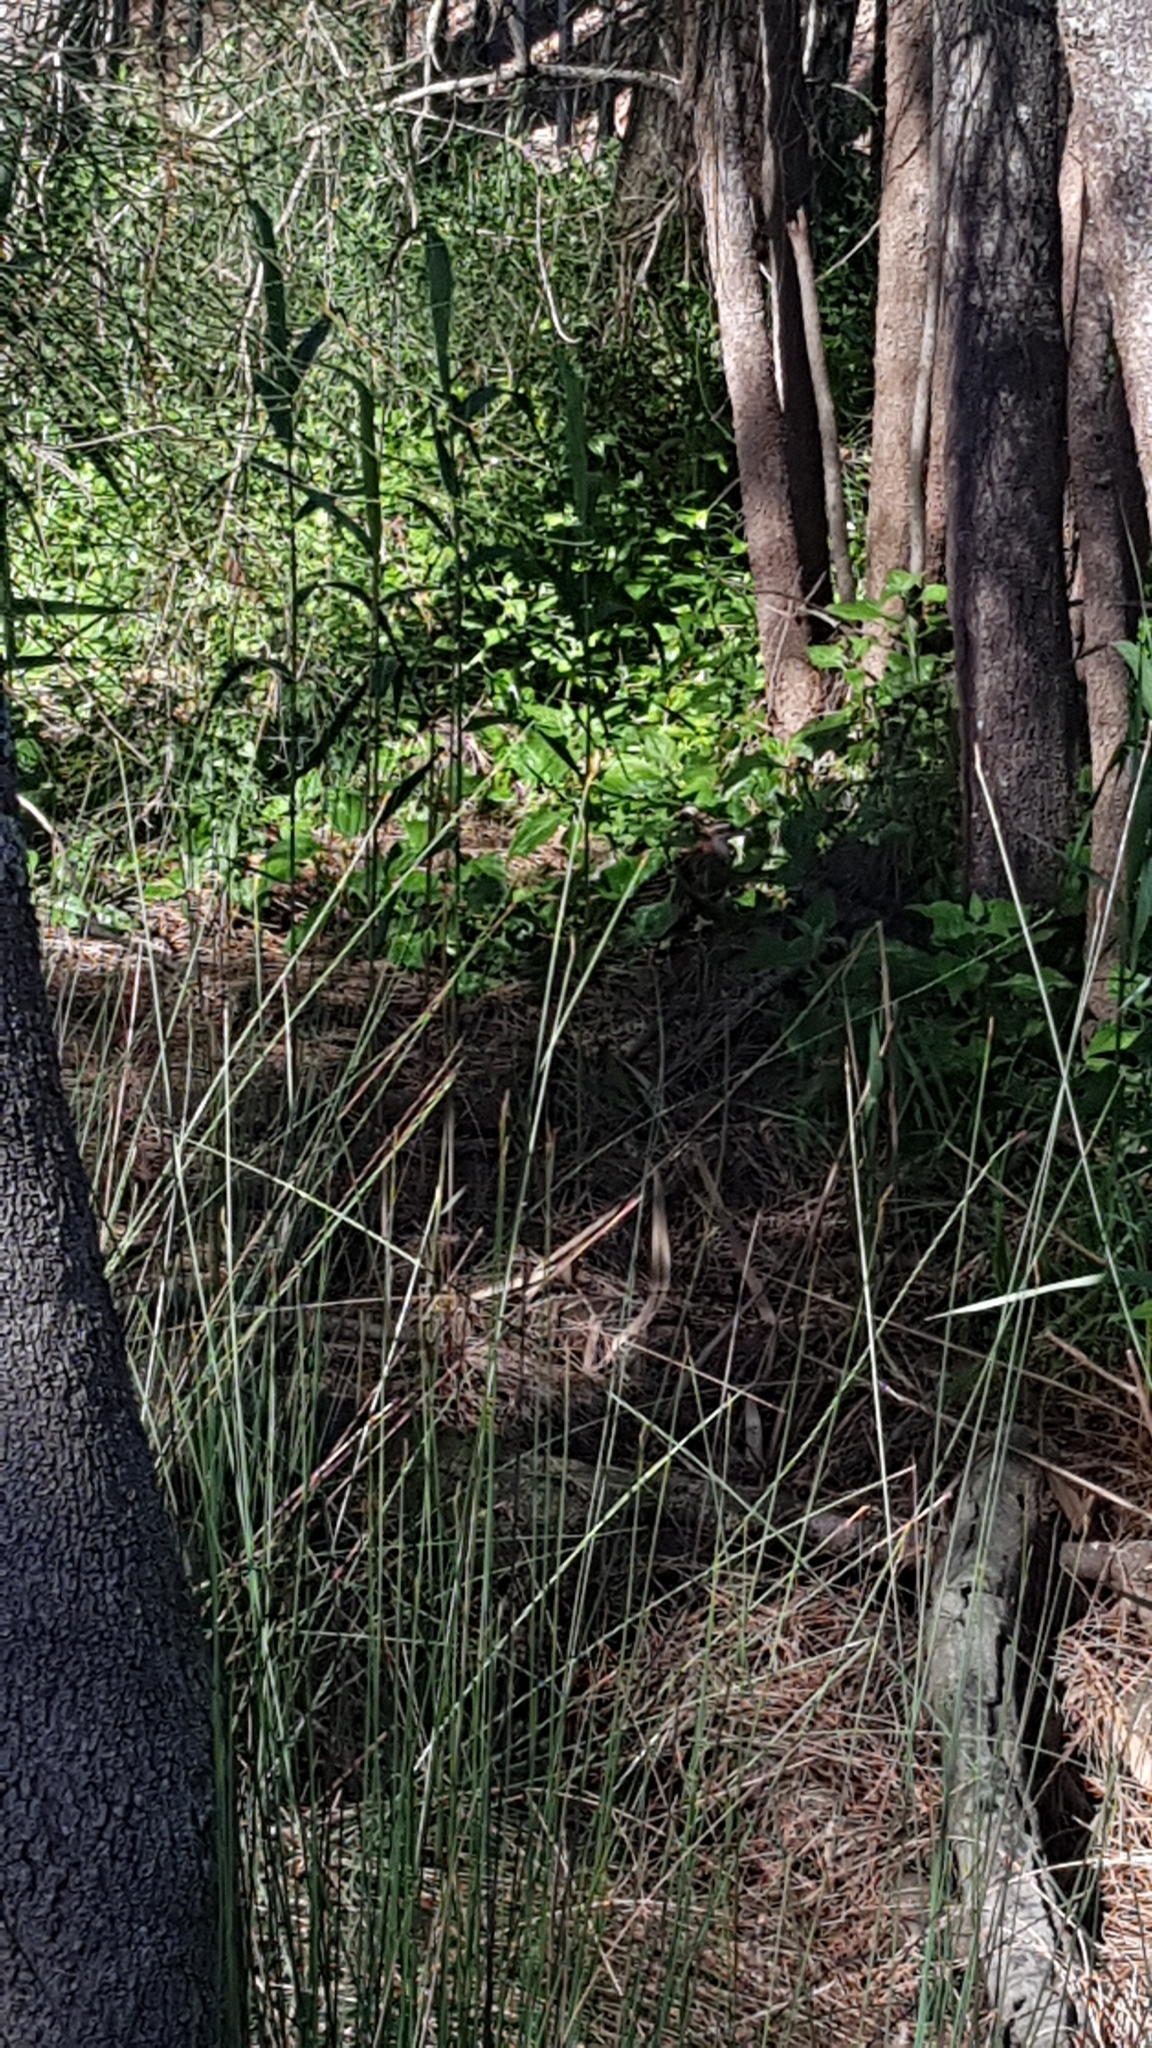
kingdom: Animalia
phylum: Chordata
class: Aves
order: Gruiformes
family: Rallidae
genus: Gallirallus
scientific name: Gallirallus philippensis
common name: Buff-banded rail
